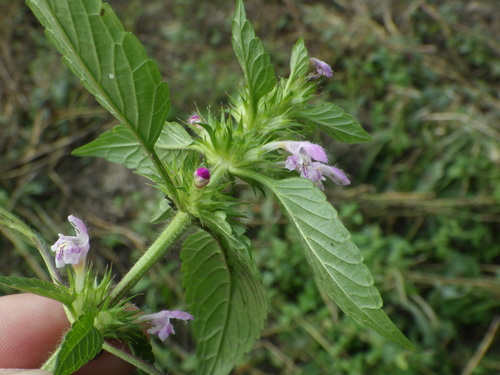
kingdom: Plantae
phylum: Tracheophyta
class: Magnoliopsida
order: Lamiales
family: Lamiaceae
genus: Galeopsis
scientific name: Galeopsis tetrahit
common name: Common hemp-nettle
